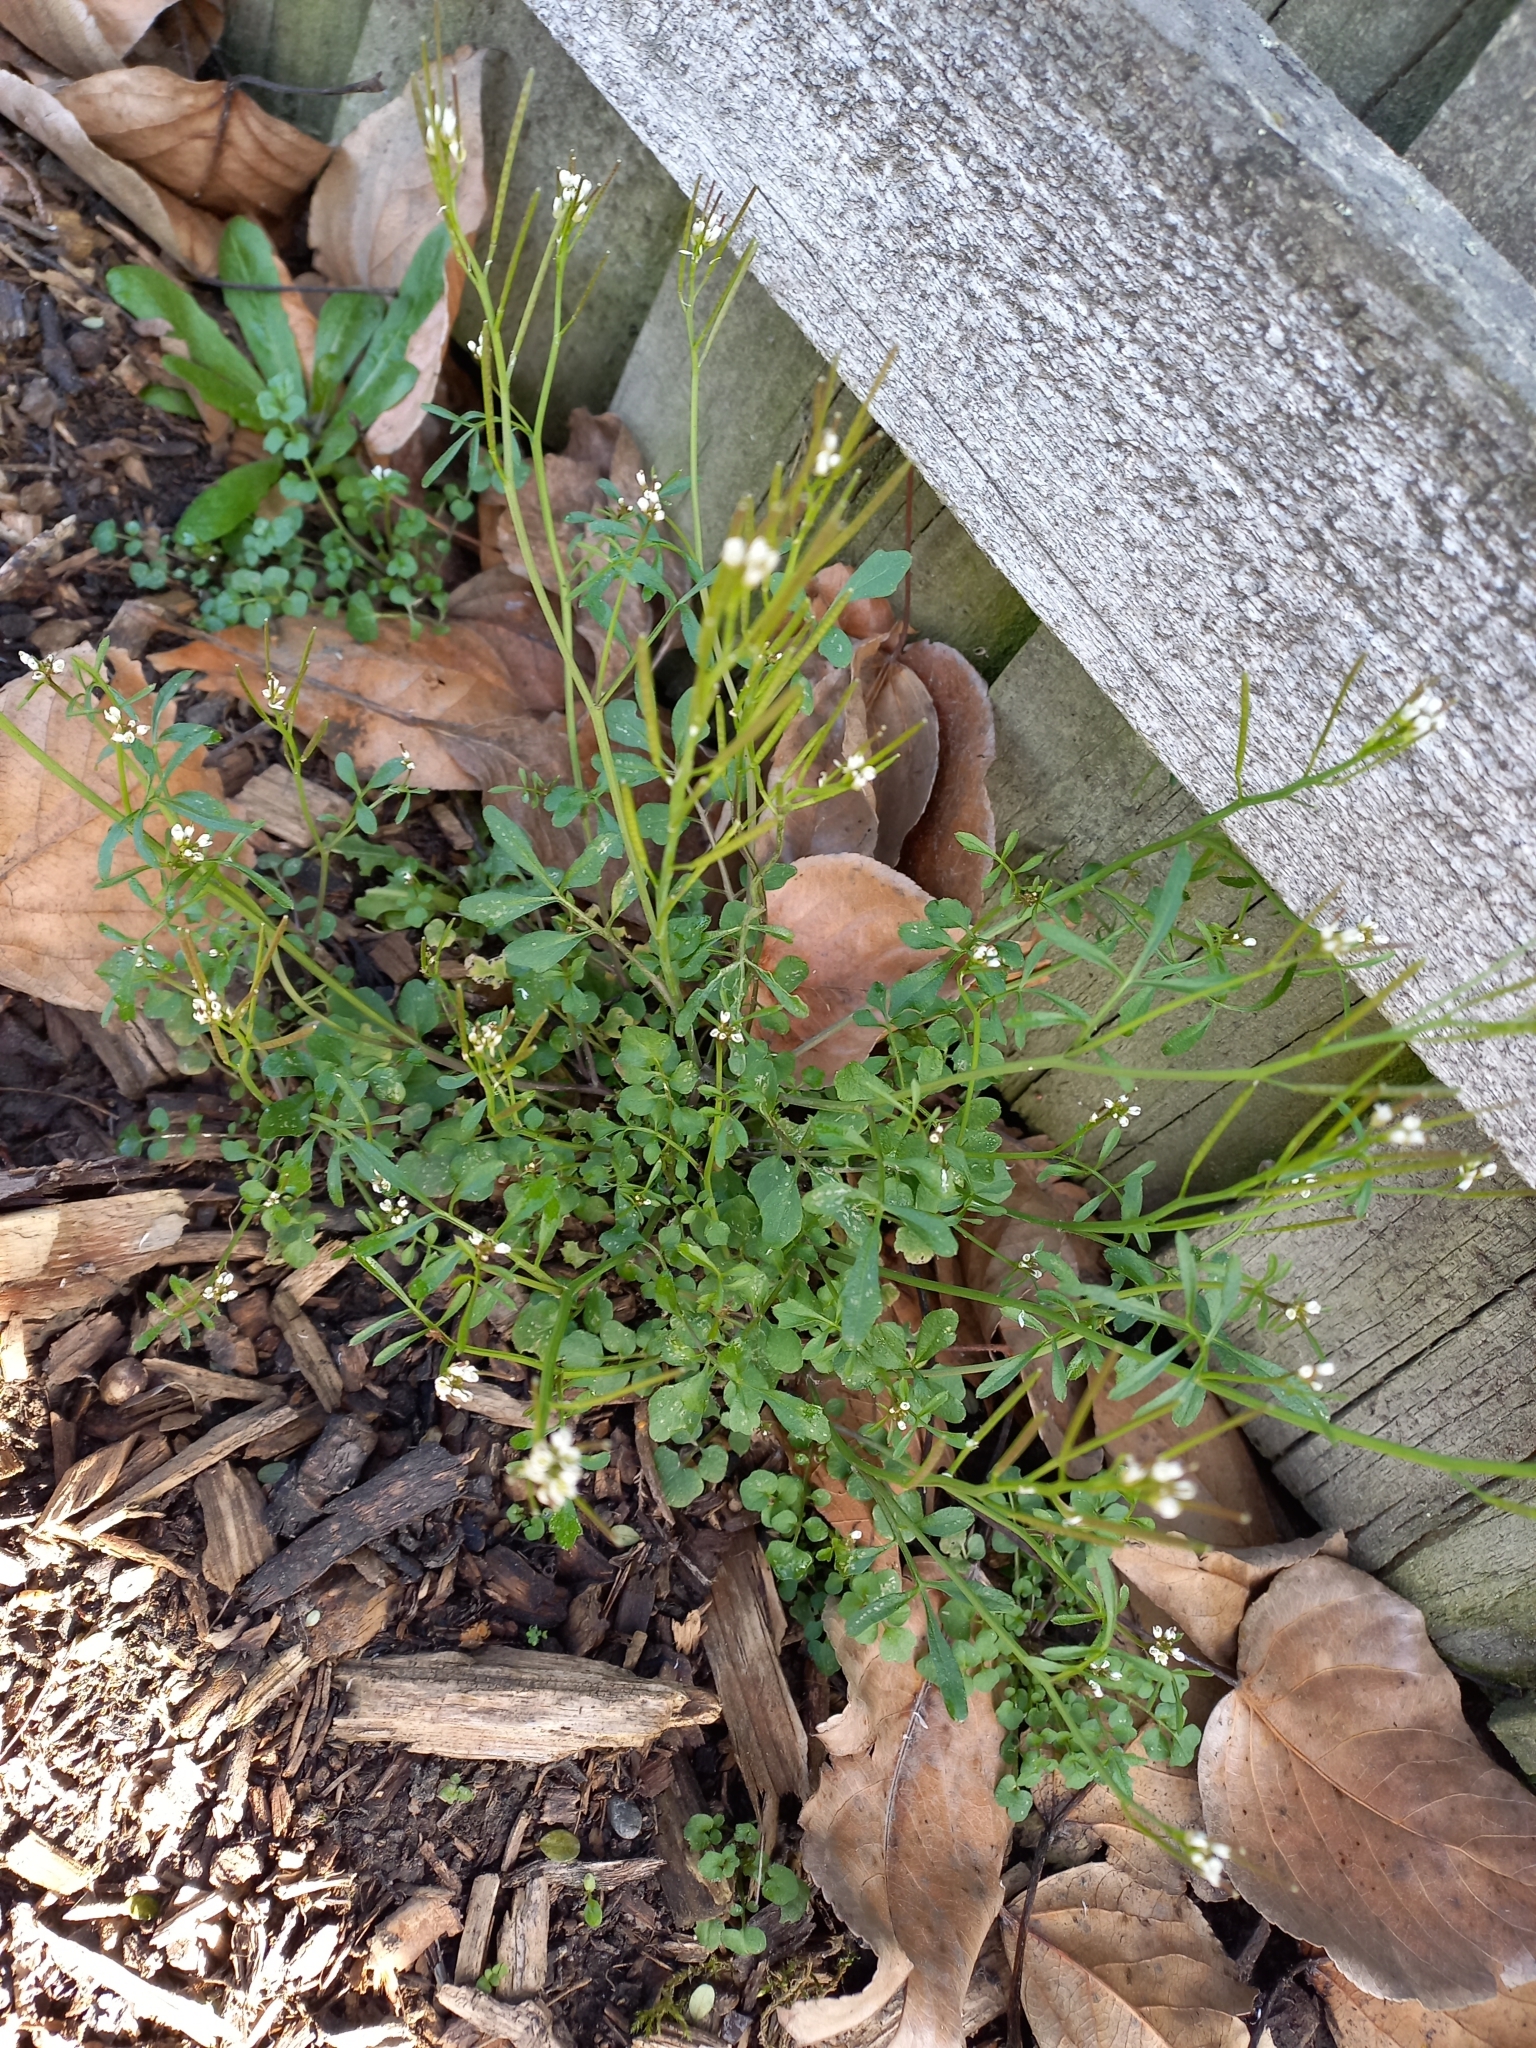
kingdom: Plantae
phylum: Tracheophyta
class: Magnoliopsida
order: Brassicales
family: Brassicaceae
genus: Cardamine
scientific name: Cardamine flexuosa
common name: Woodland bittercress
